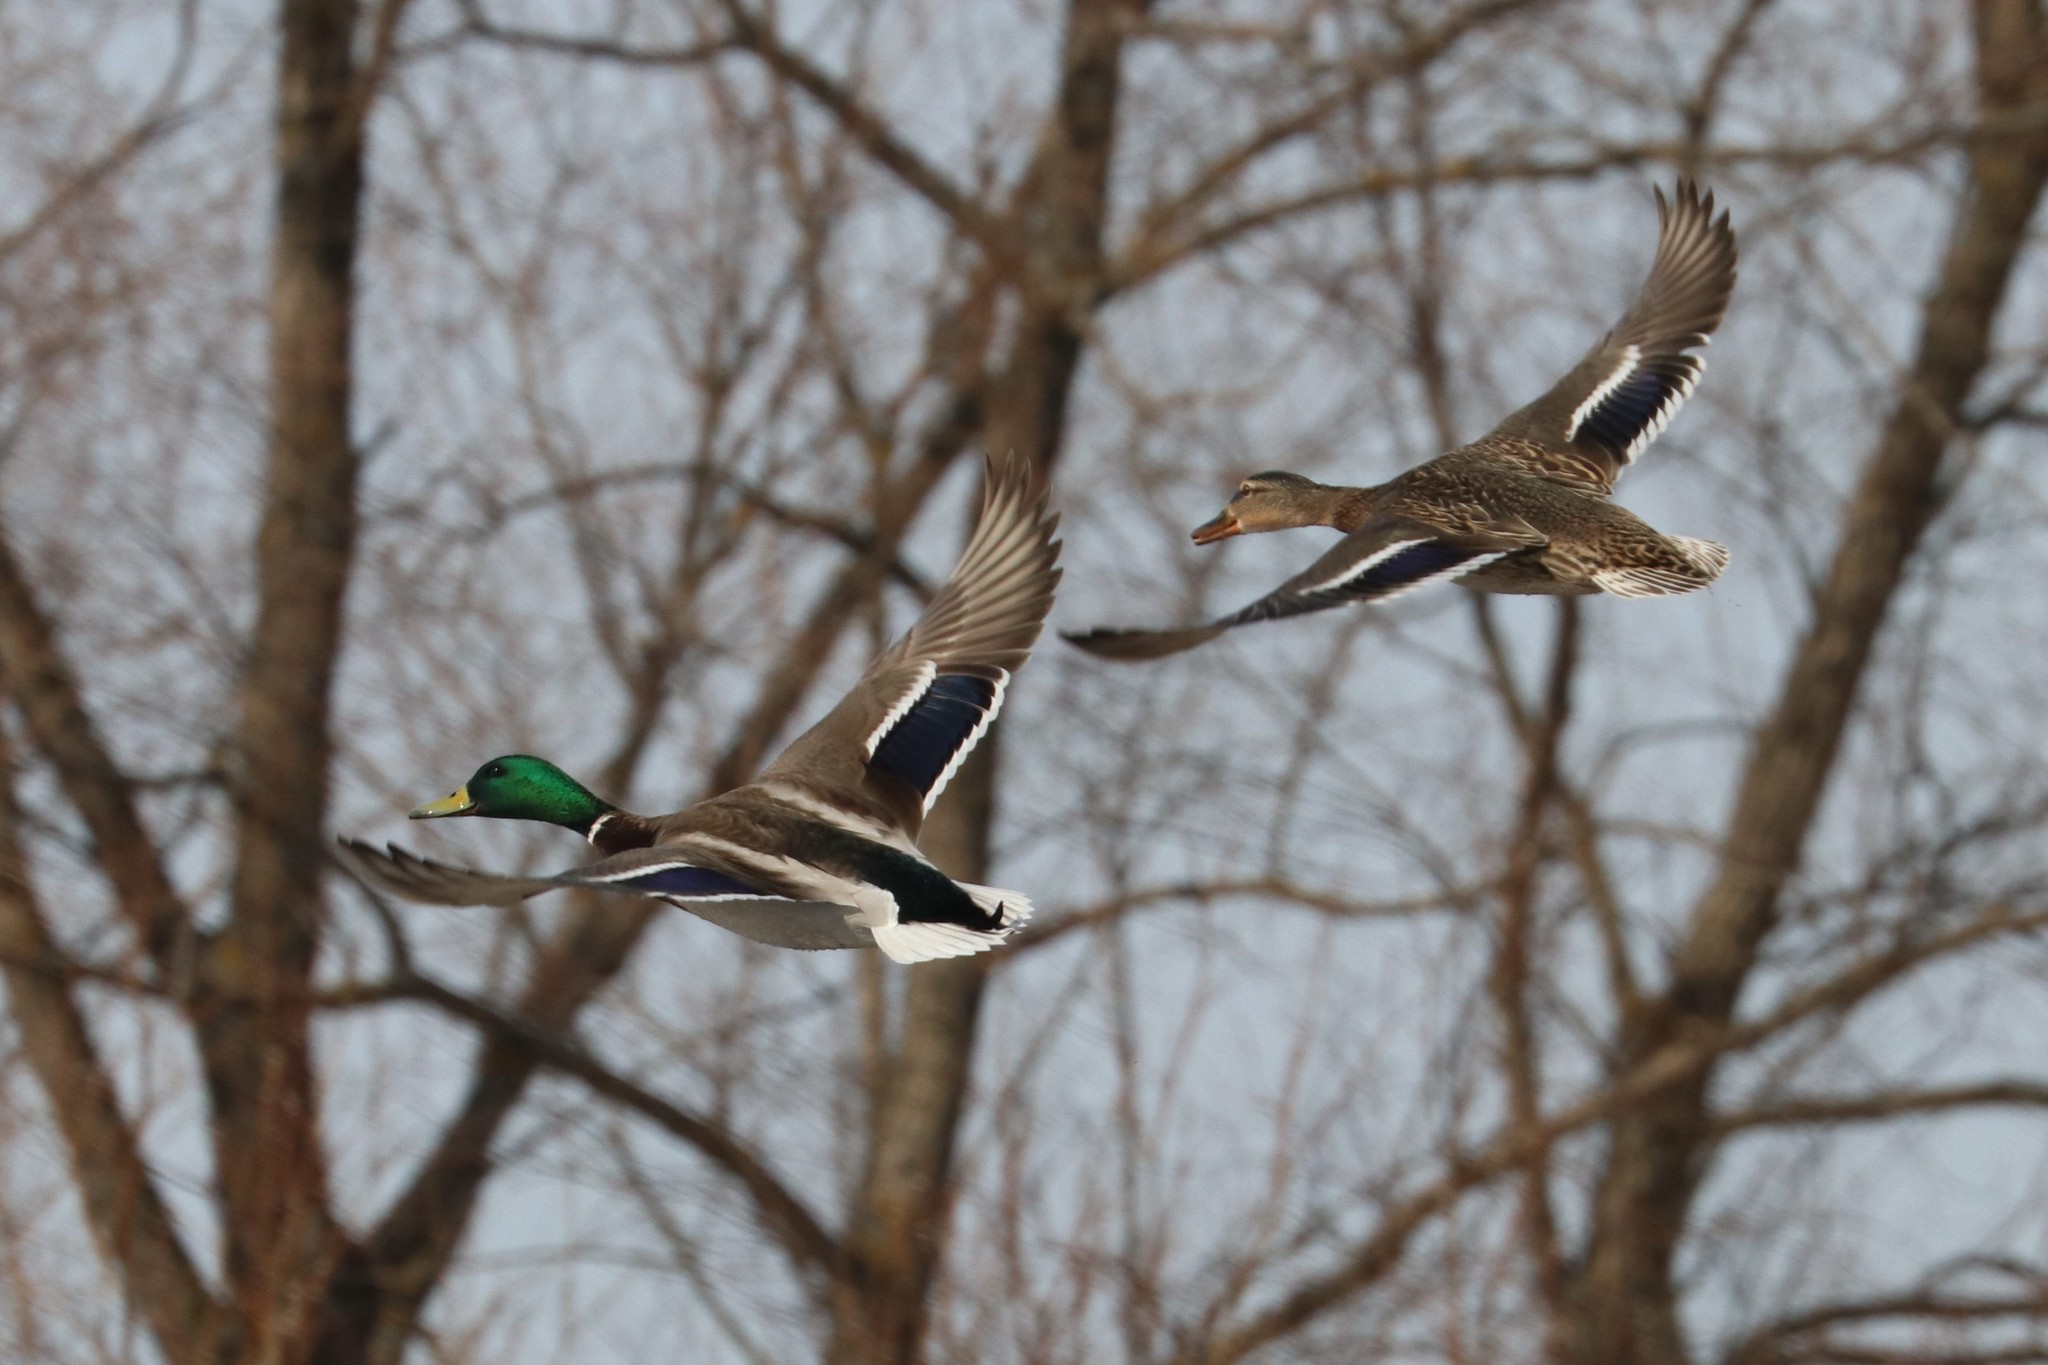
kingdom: Animalia
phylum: Chordata
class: Aves
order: Anseriformes
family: Anatidae
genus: Anas
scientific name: Anas platyrhynchos
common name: Mallard
